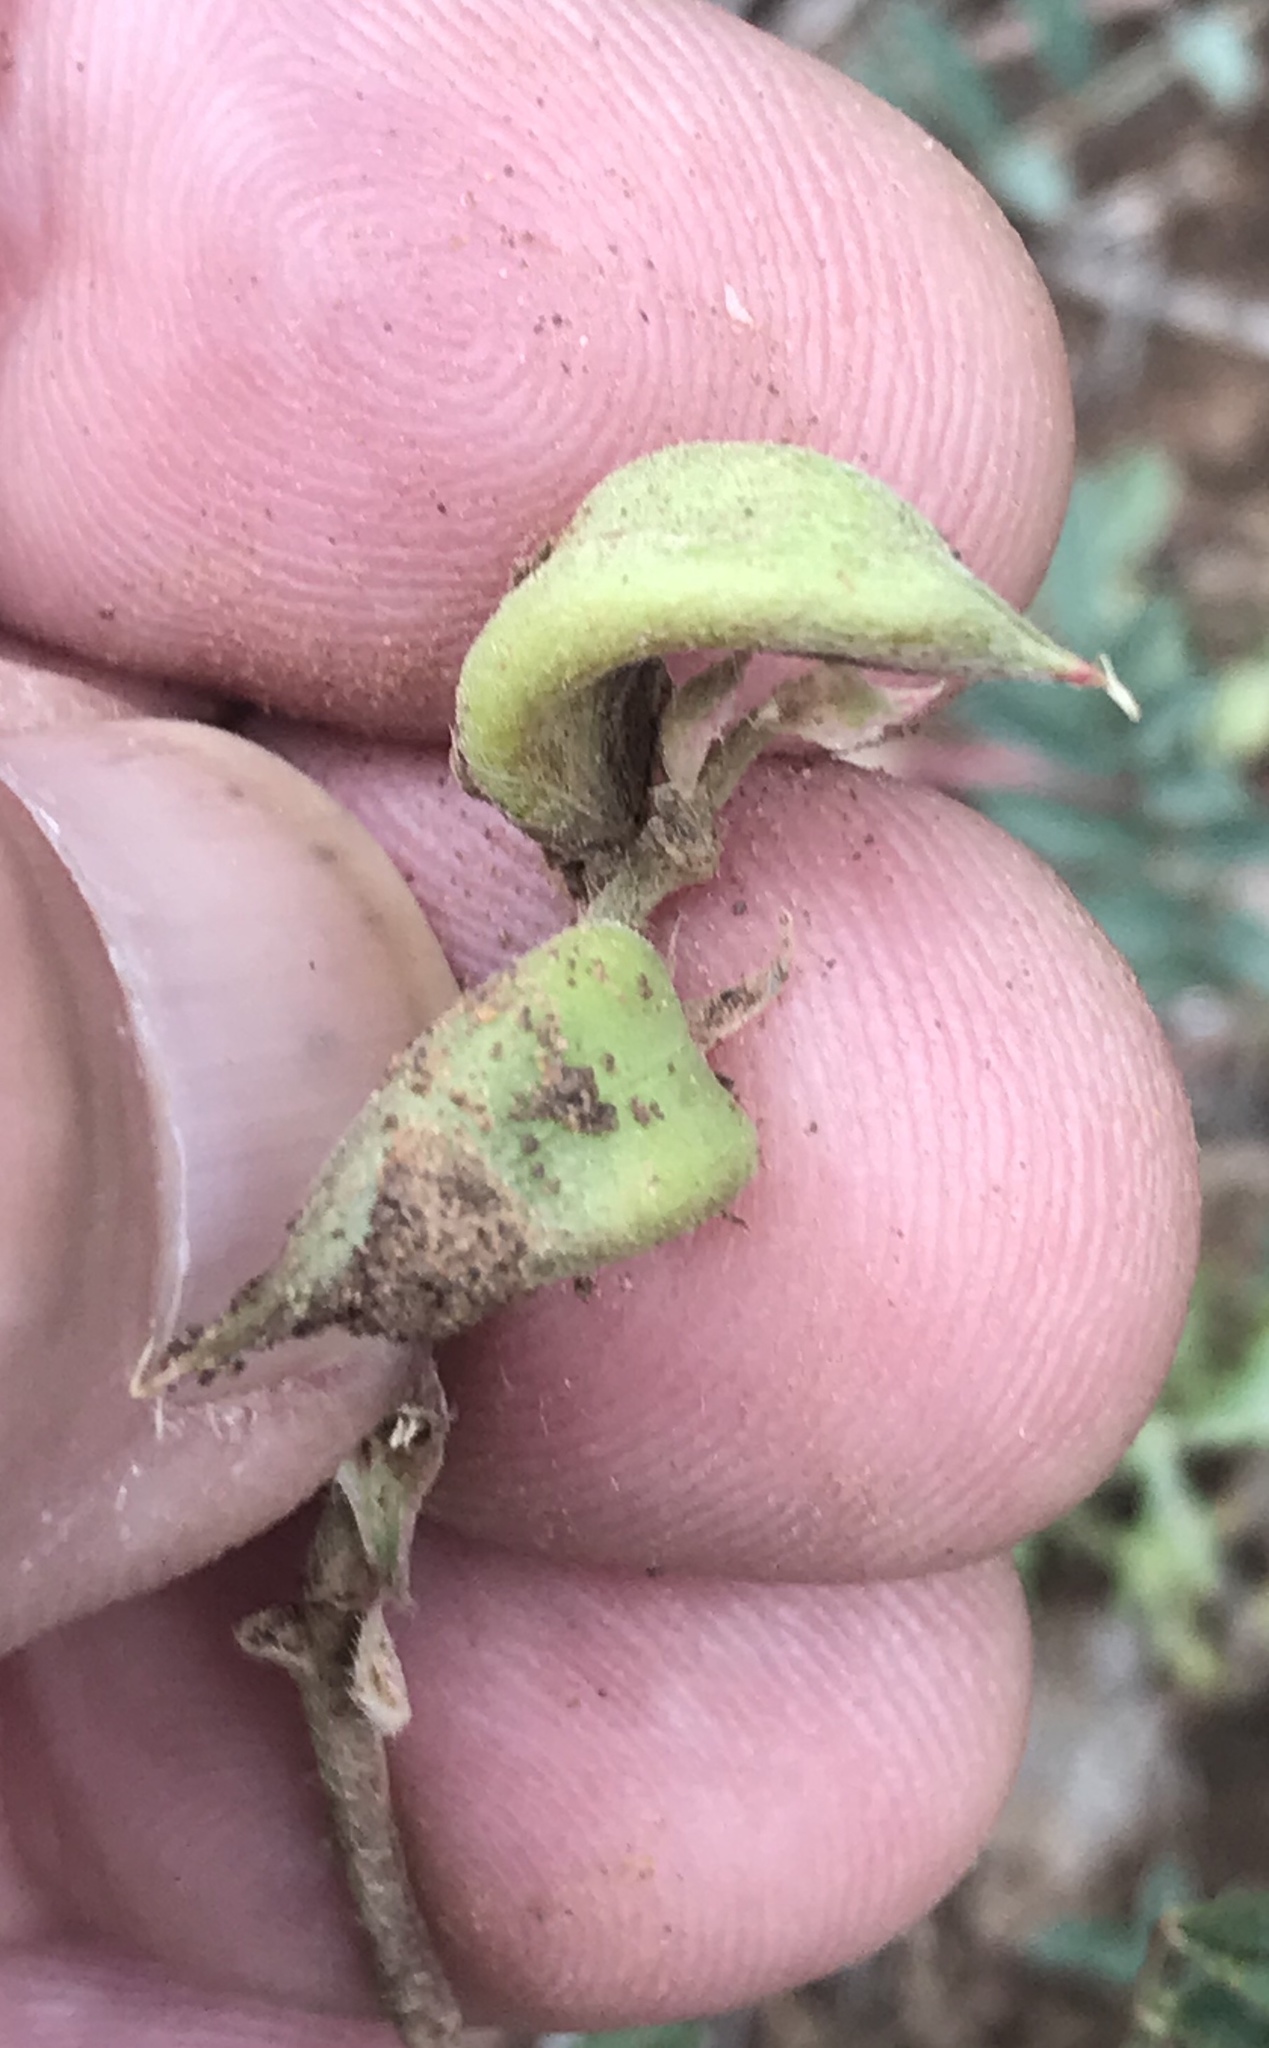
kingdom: Plantae
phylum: Tracheophyta
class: Magnoliopsida
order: Fabales
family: Fabaceae
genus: Astragalus
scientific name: Astragalus humistratus
